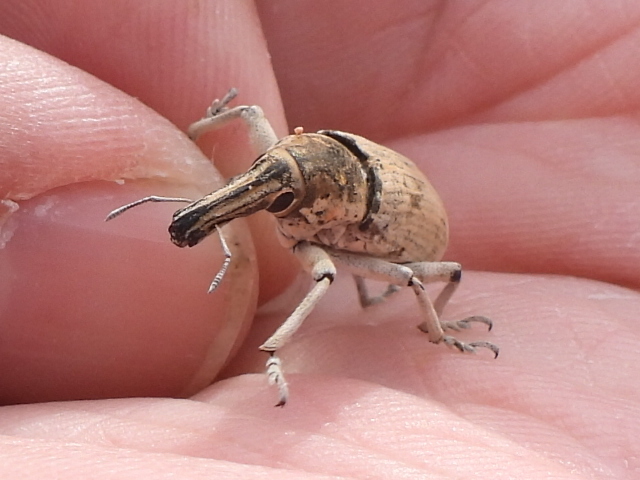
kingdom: Animalia
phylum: Arthropoda
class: Insecta
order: Coleoptera
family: Curculionidae
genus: Ammocleonus
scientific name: Ammocleonus hieroglyphicus
